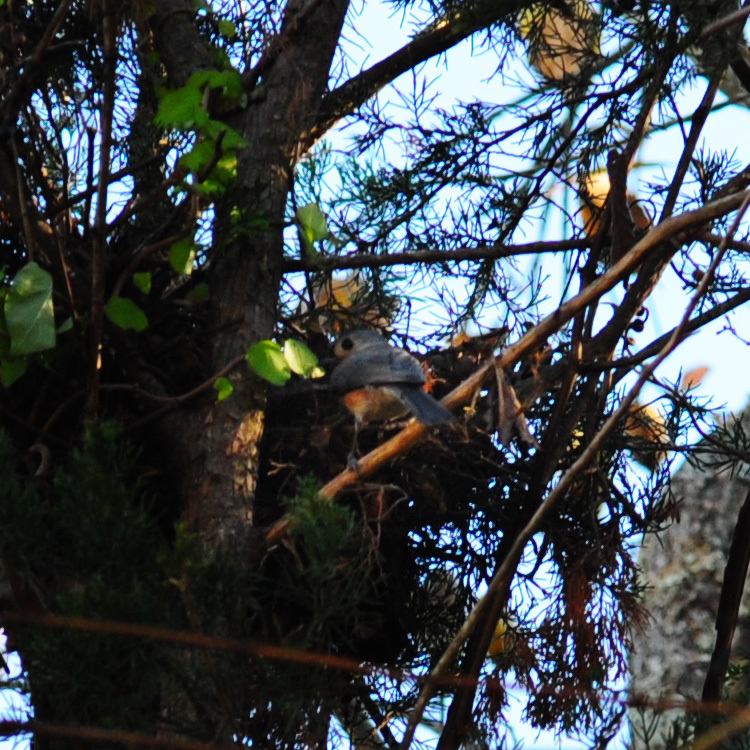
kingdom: Animalia
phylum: Chordata
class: Aves
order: Passeriformes
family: Paridae
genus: Baeolophus
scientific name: Baeolophus bicolor
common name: Tufted titmouse
